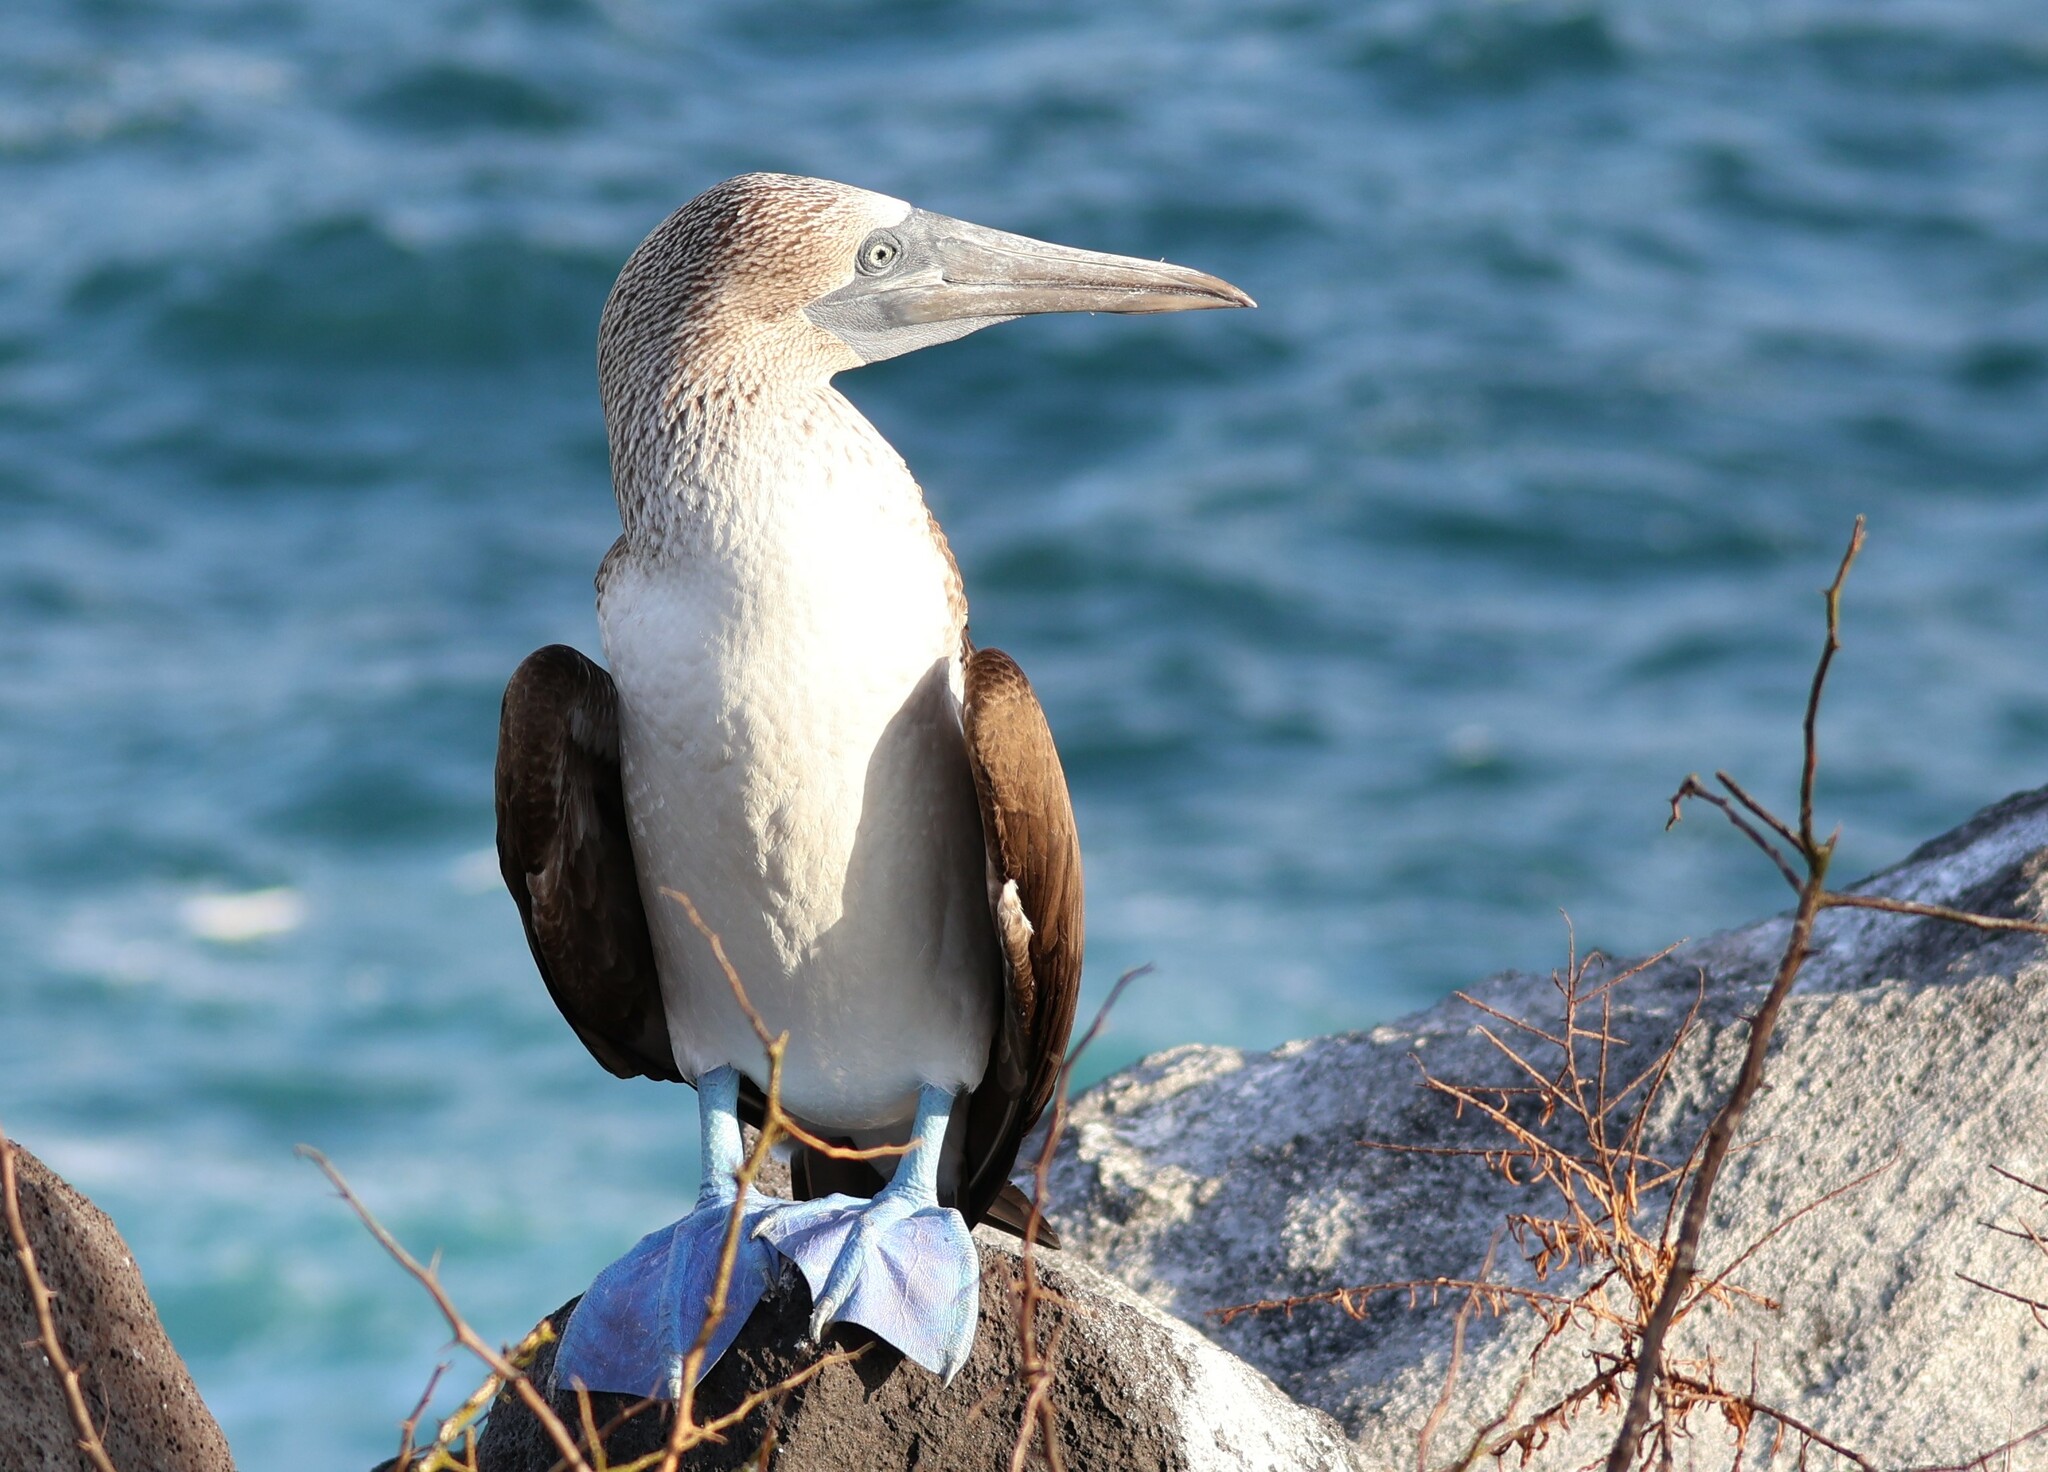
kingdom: Animalia
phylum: Chordata
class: Aves
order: Suliformes
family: Sulidae
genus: Sula
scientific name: Sula nebouxii
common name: Blue-footed booby
